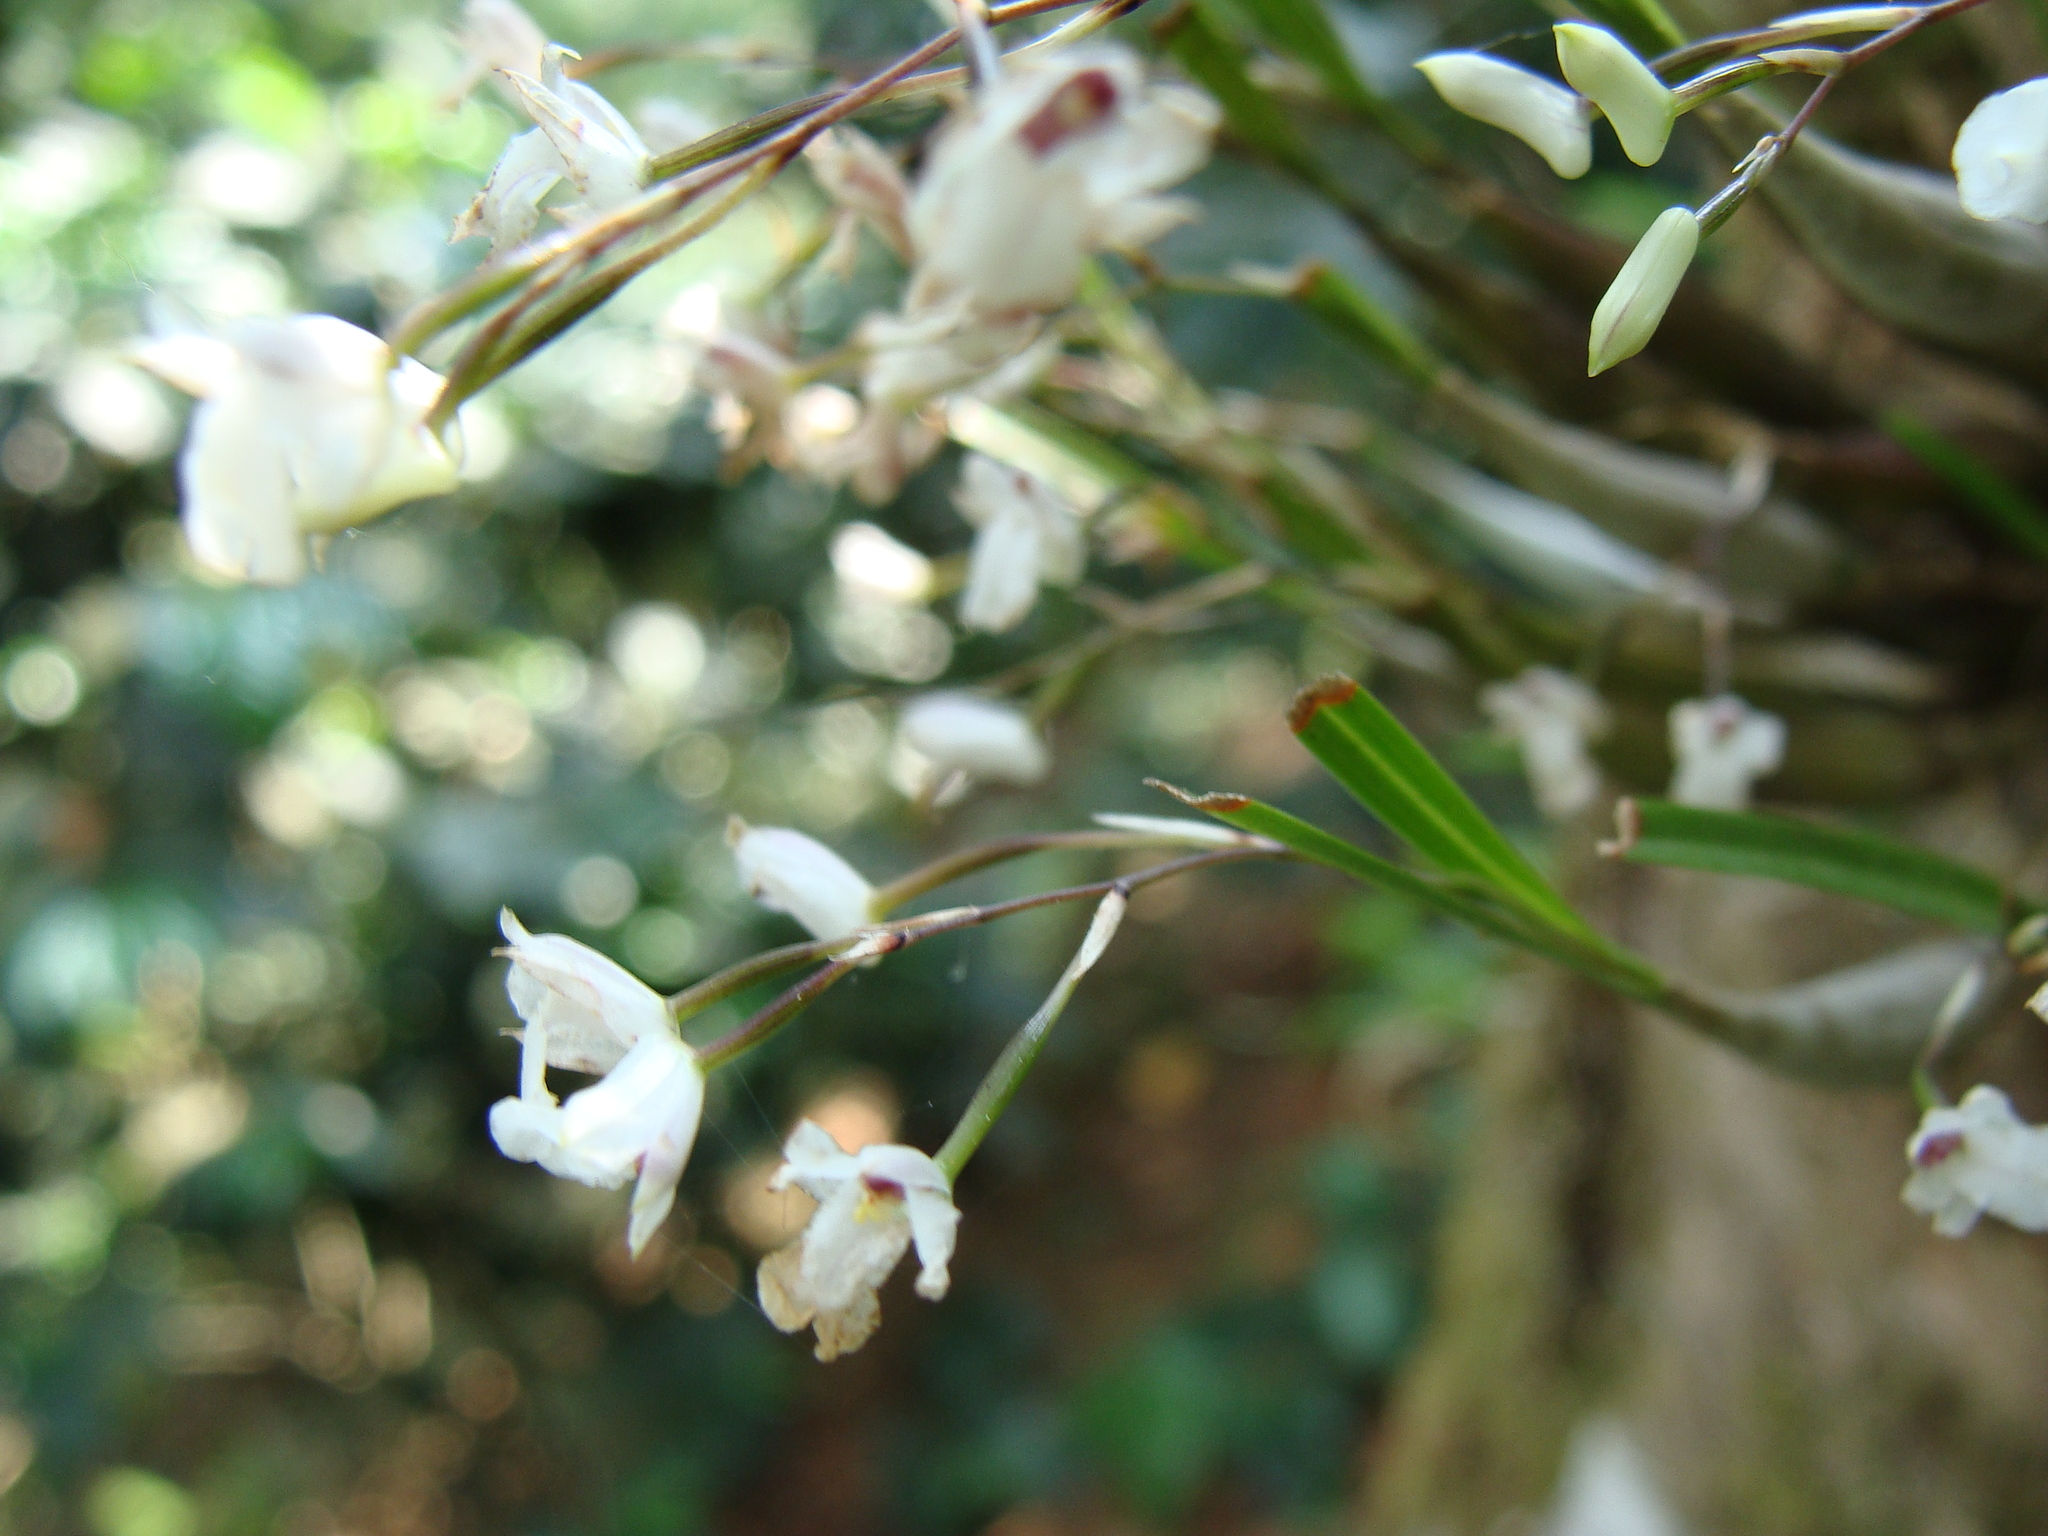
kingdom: Plantae
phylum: Tracheophyta
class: Liliopsida
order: Asparagales
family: Orchidaceae
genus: Scaphyglottis
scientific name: Scaphyglottis crurigera
